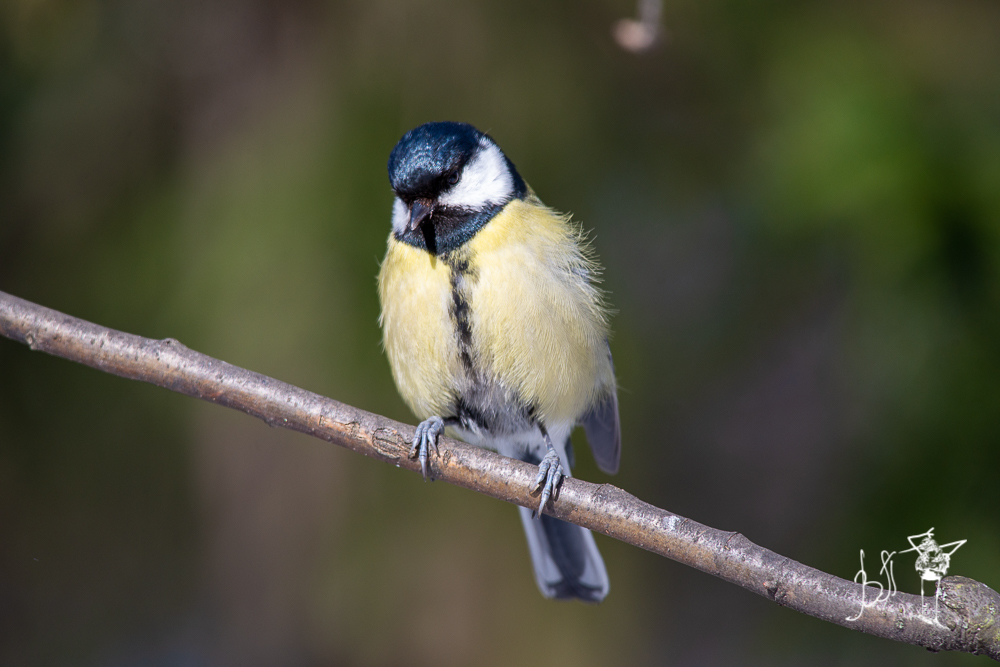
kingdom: Animalia
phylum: Chordata
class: Aves
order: Passeriformes
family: Paridae
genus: Parus
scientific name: Parus major
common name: Great tit
